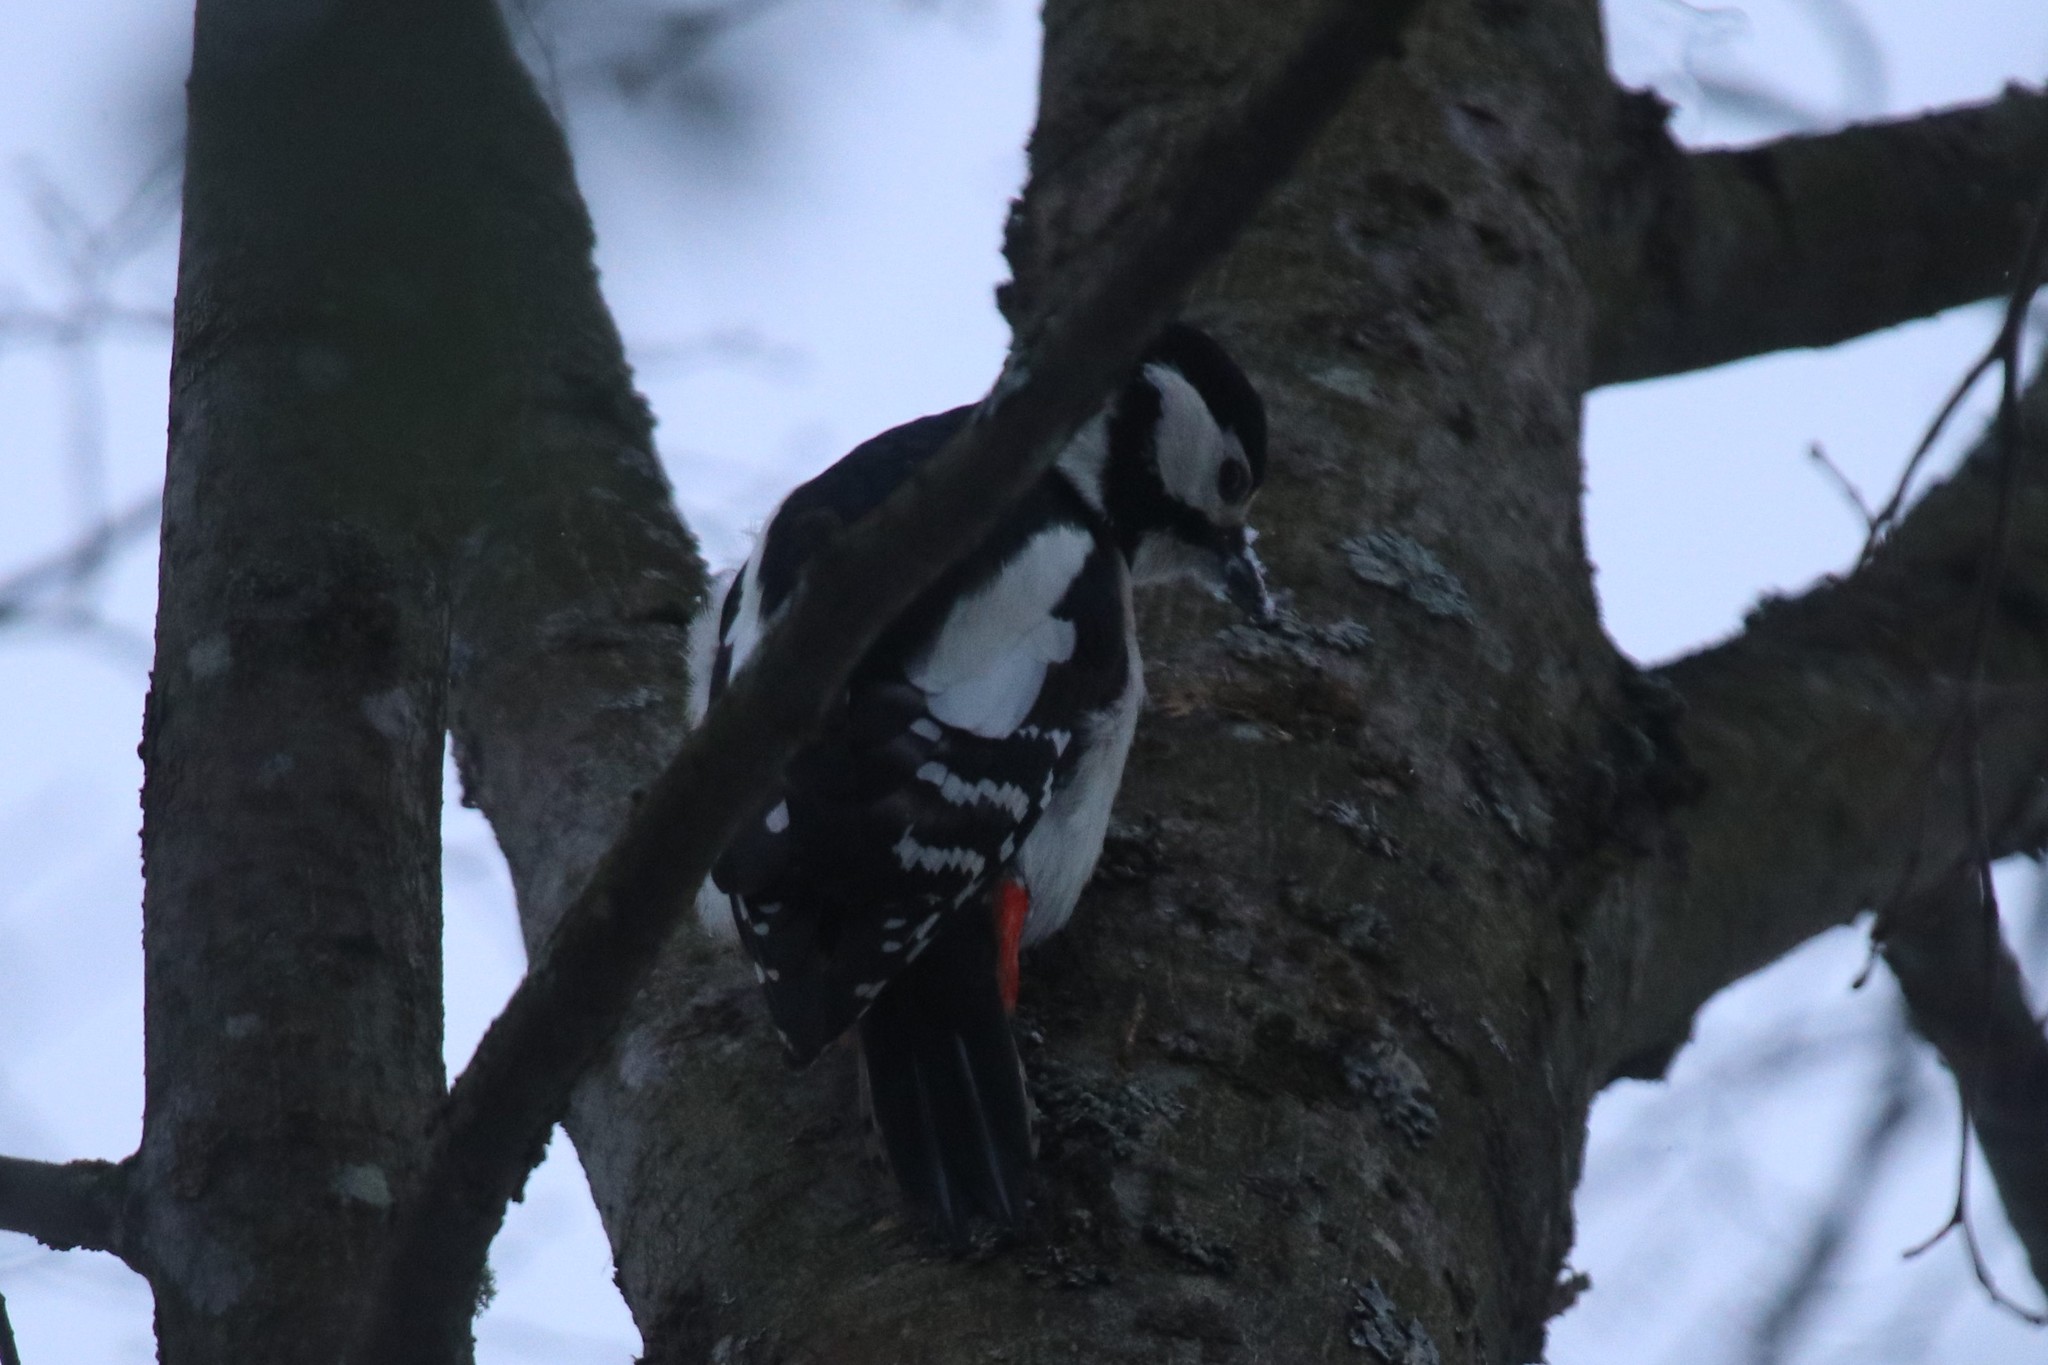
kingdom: Animalia
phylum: Chordata
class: Aves
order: Piciformes
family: Picidae
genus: Dendrocopos
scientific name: Dendrocopos major
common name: Great spotted woodpecker
